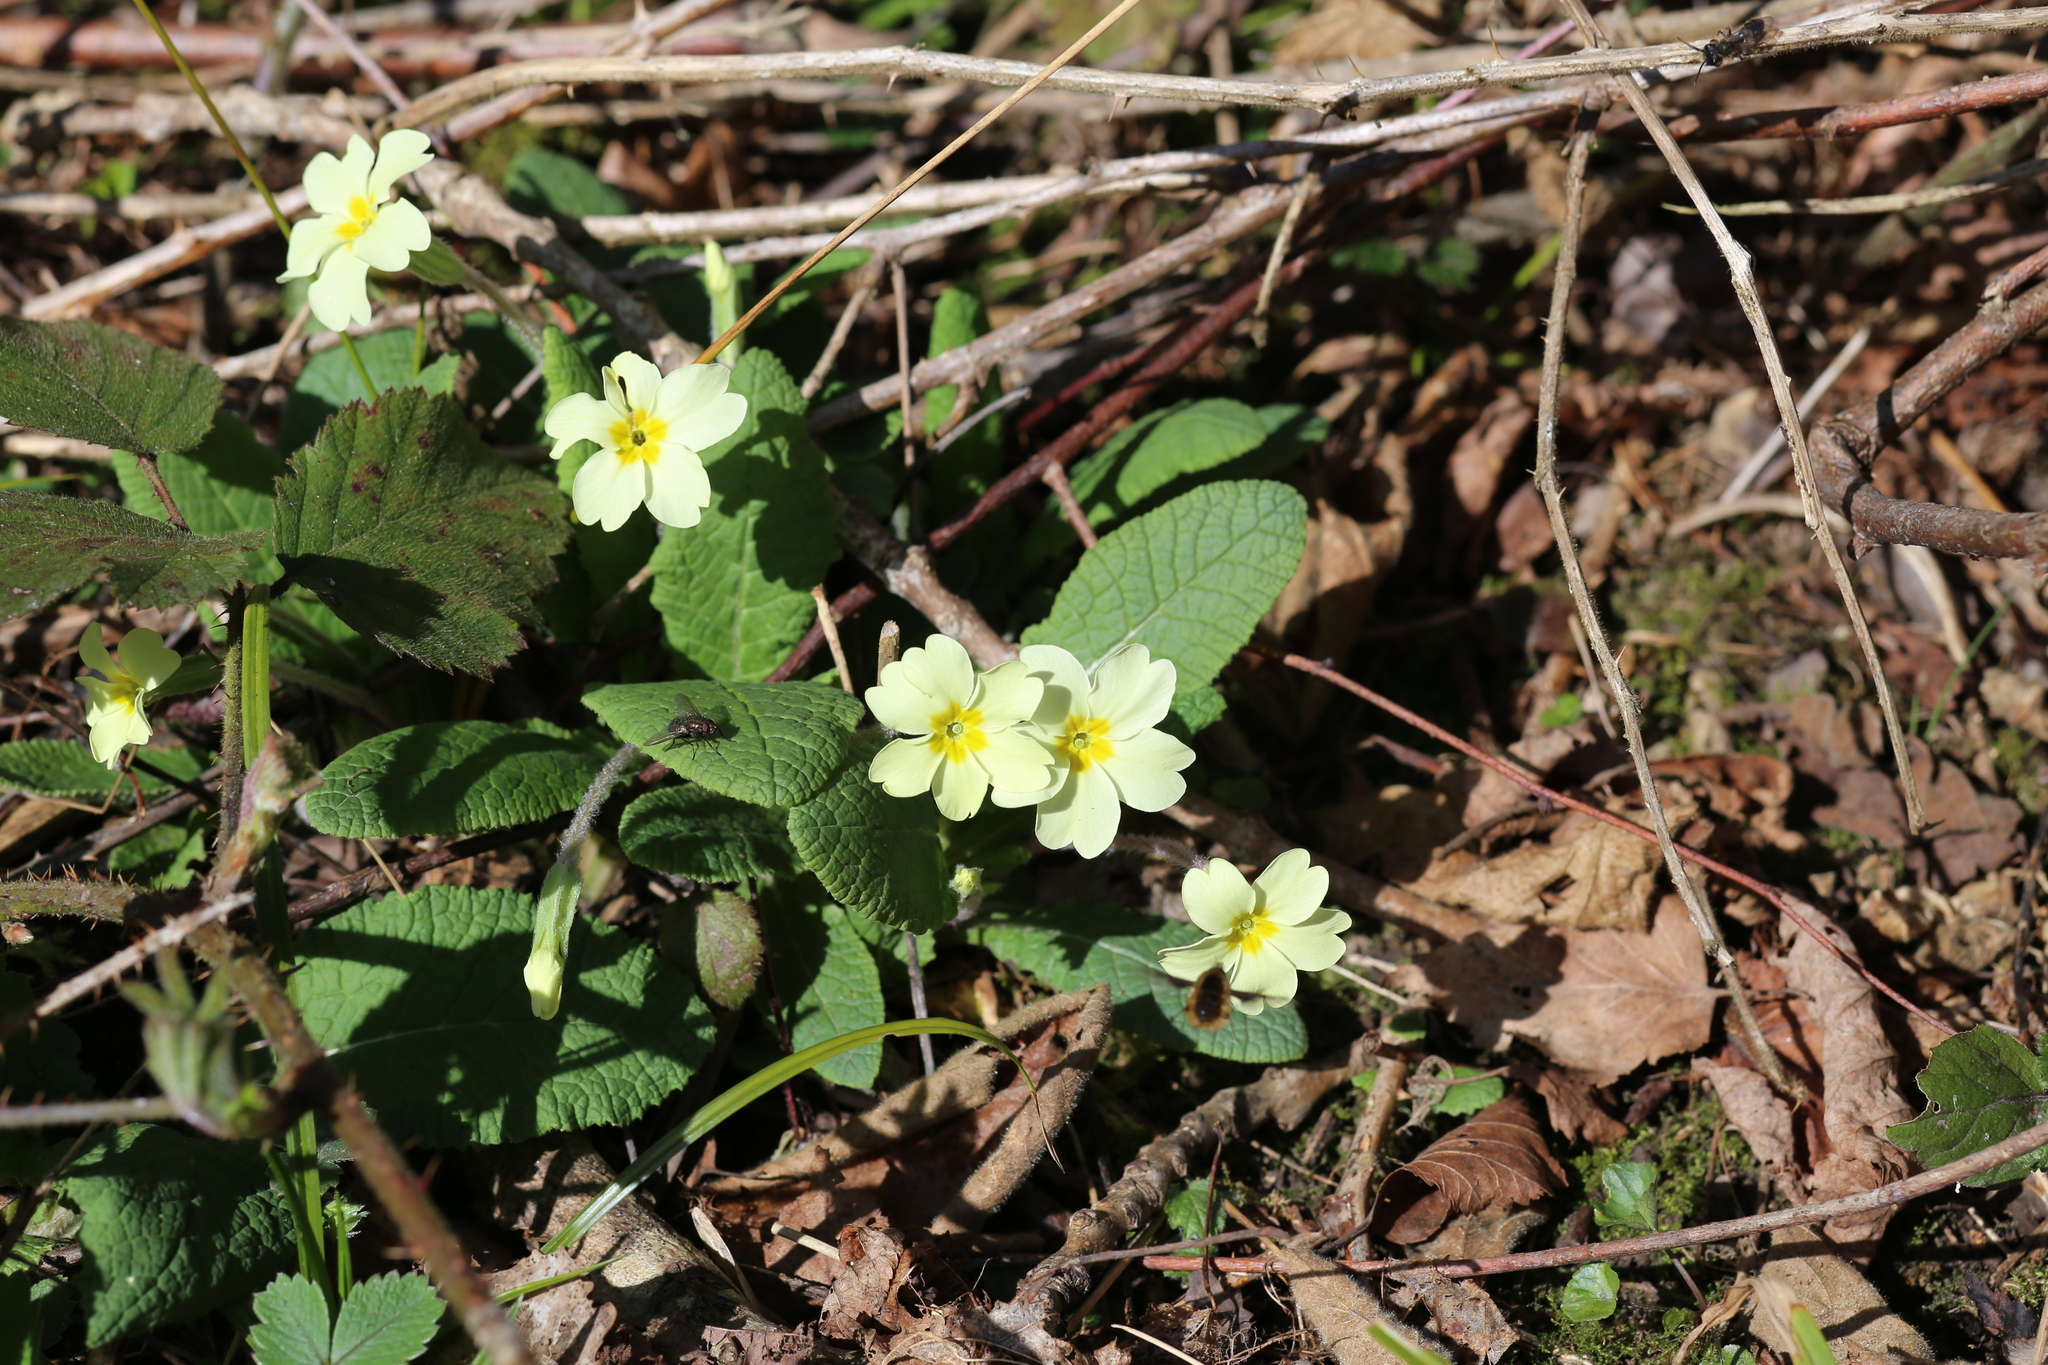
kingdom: Plantae
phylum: Tracheophyta
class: Magnoliopsida
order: Ericales
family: Primulaceae
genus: Primula
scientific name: Primula vulgaris
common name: Primrose
